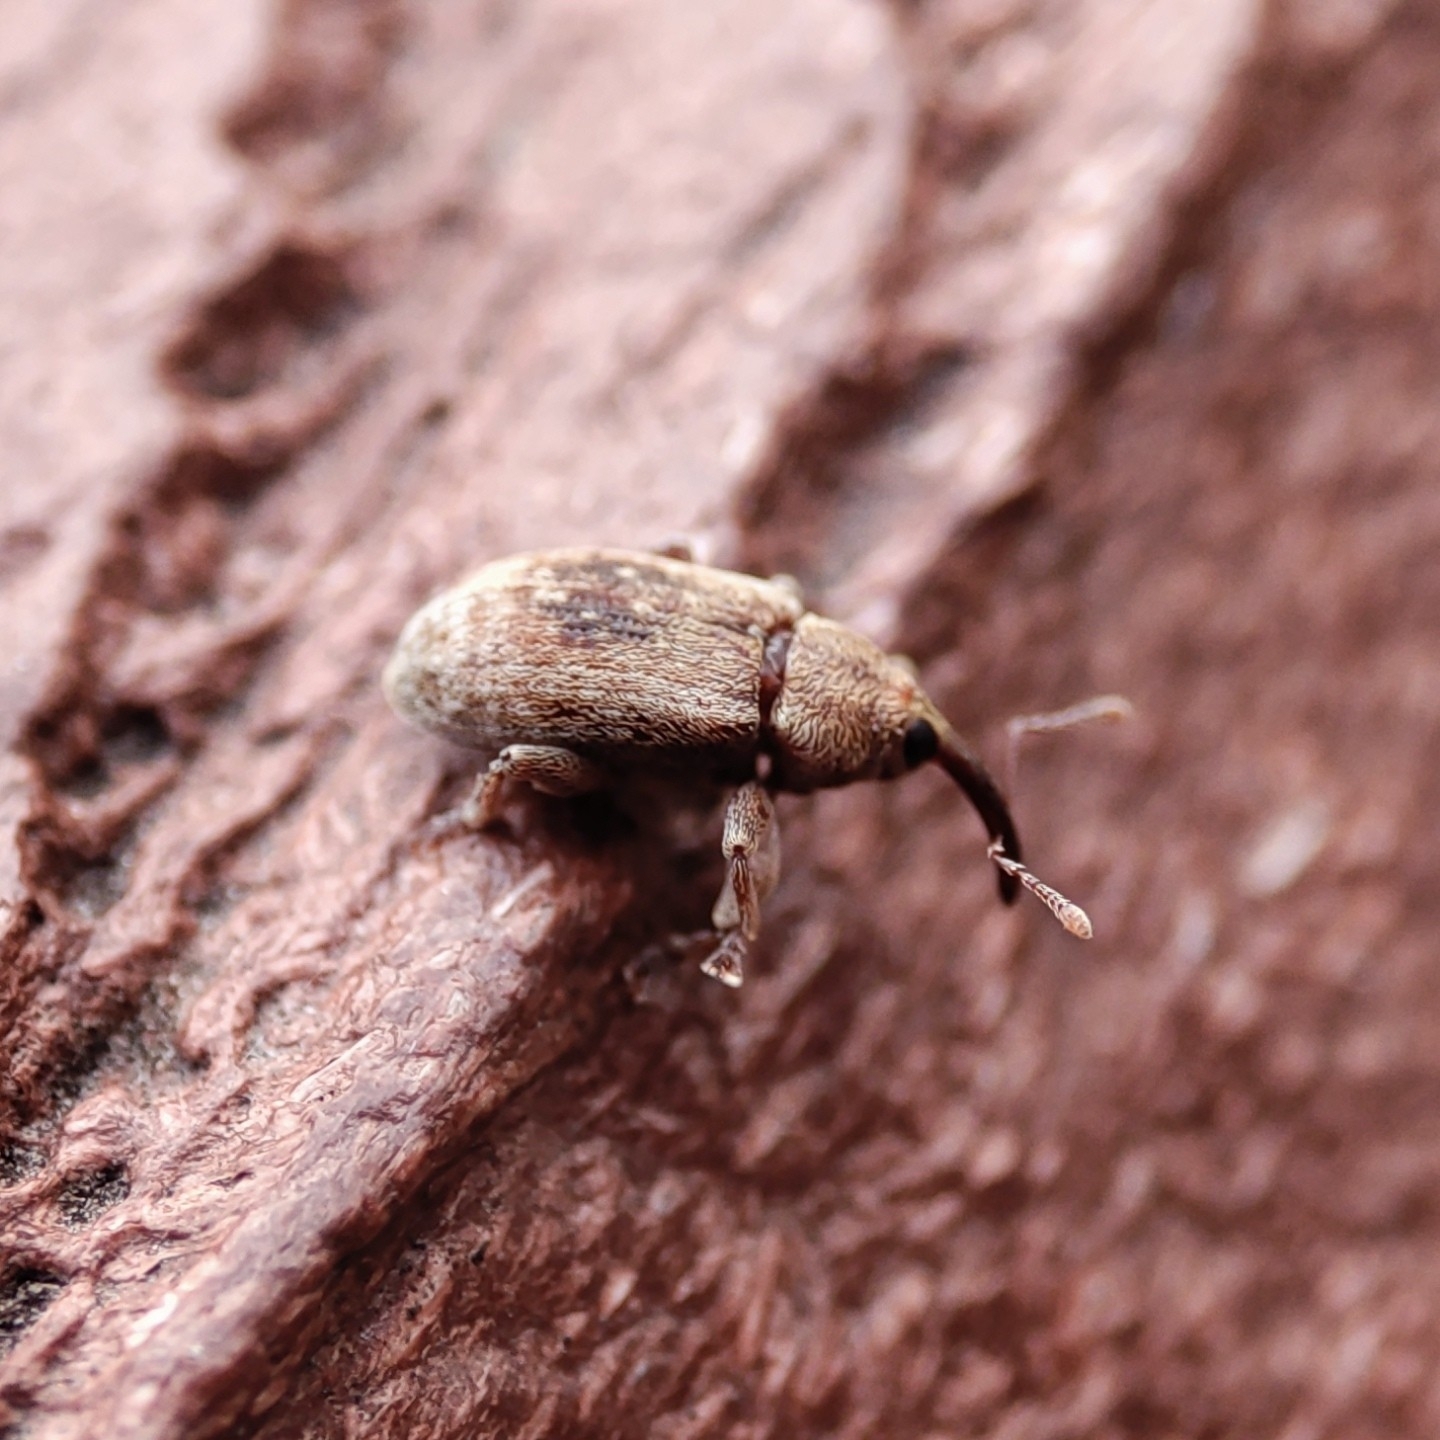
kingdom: Animalia
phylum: Arthropoda
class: Insecta
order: Coleoptera
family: Curculionidae
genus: Dorytomus
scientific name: Dorytomus melanophthalmus
